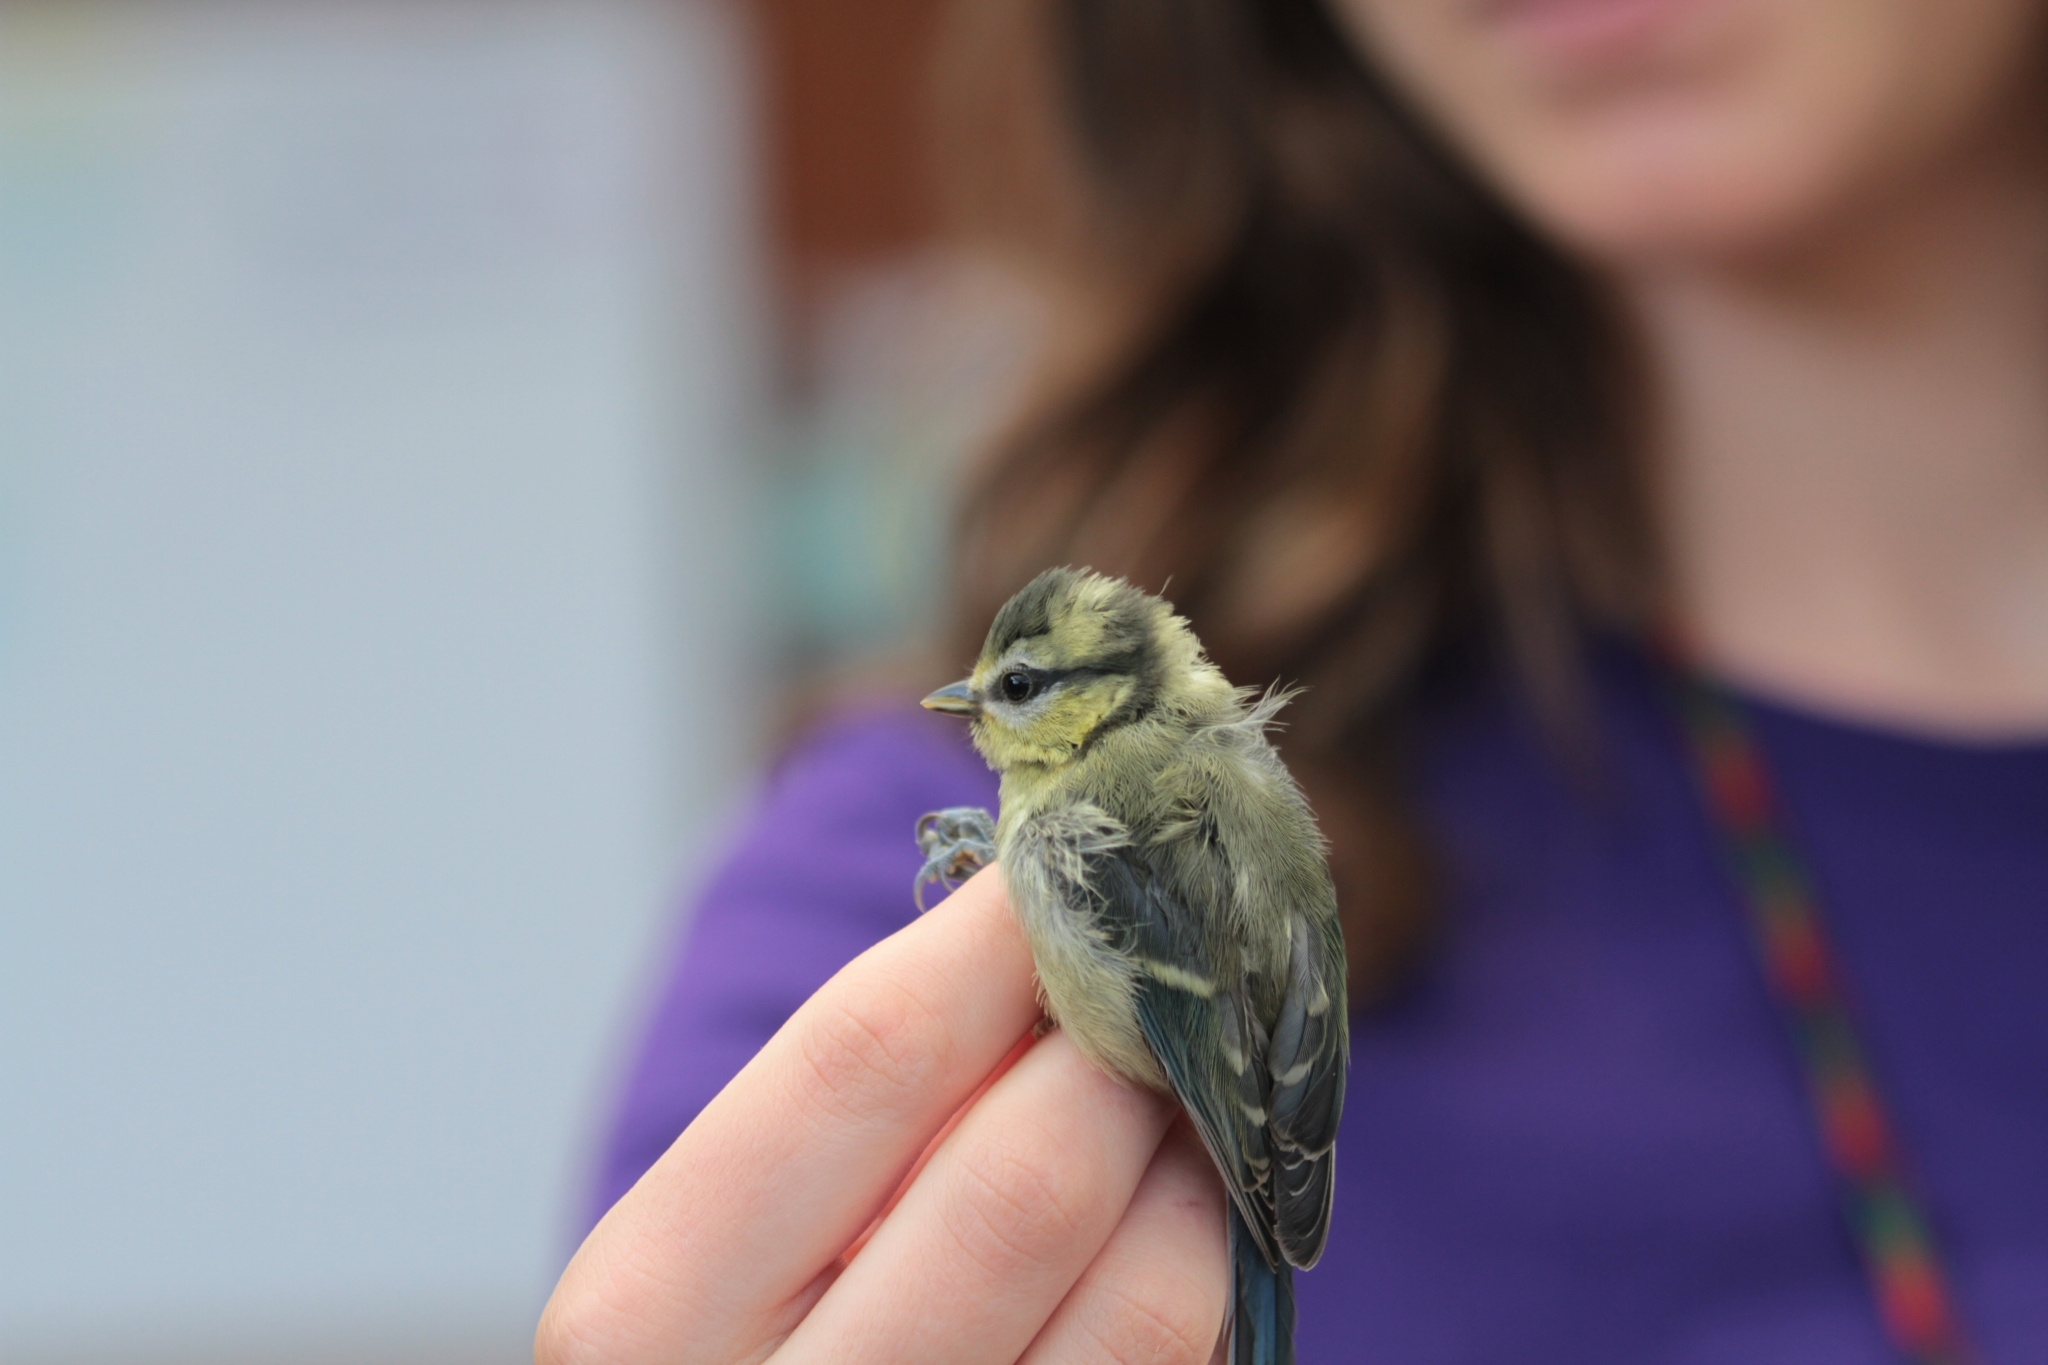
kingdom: Animalia
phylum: Chordata
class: Aves
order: Passeriformes
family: Paridae
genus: Cyanistes
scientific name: Cyanistes caeruleus
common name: Eurasian blue tit
